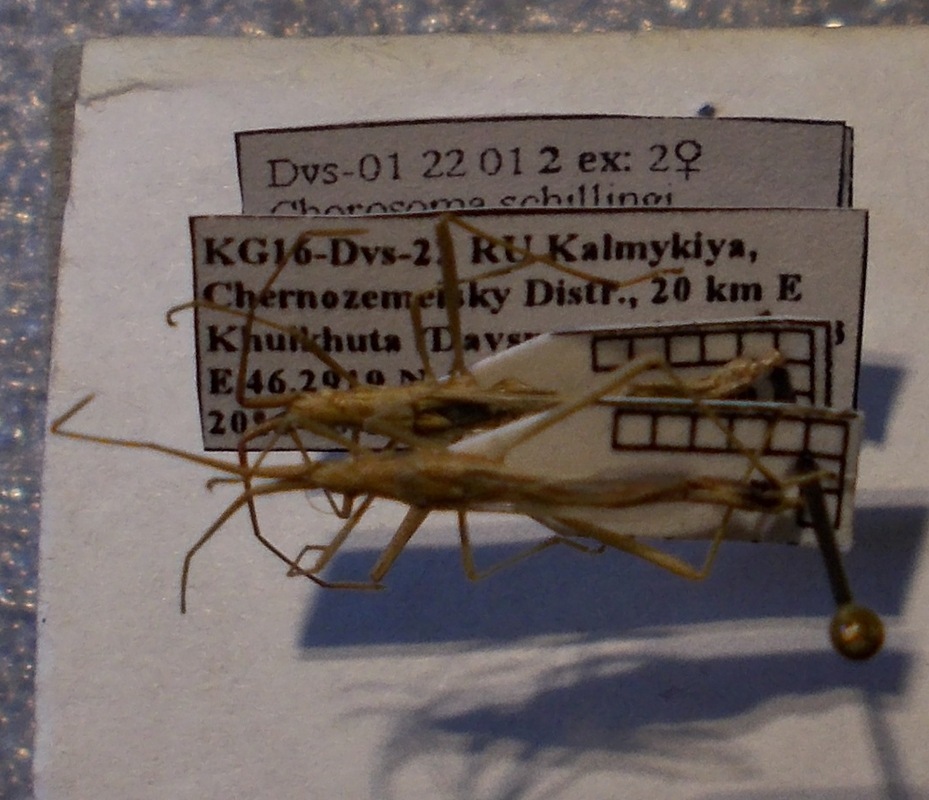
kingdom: Animalia
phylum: Arthropoda
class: Insecta
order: Hemiptera
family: Rhopalidae
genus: Chorosoma
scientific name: Chorosoma schillingii
